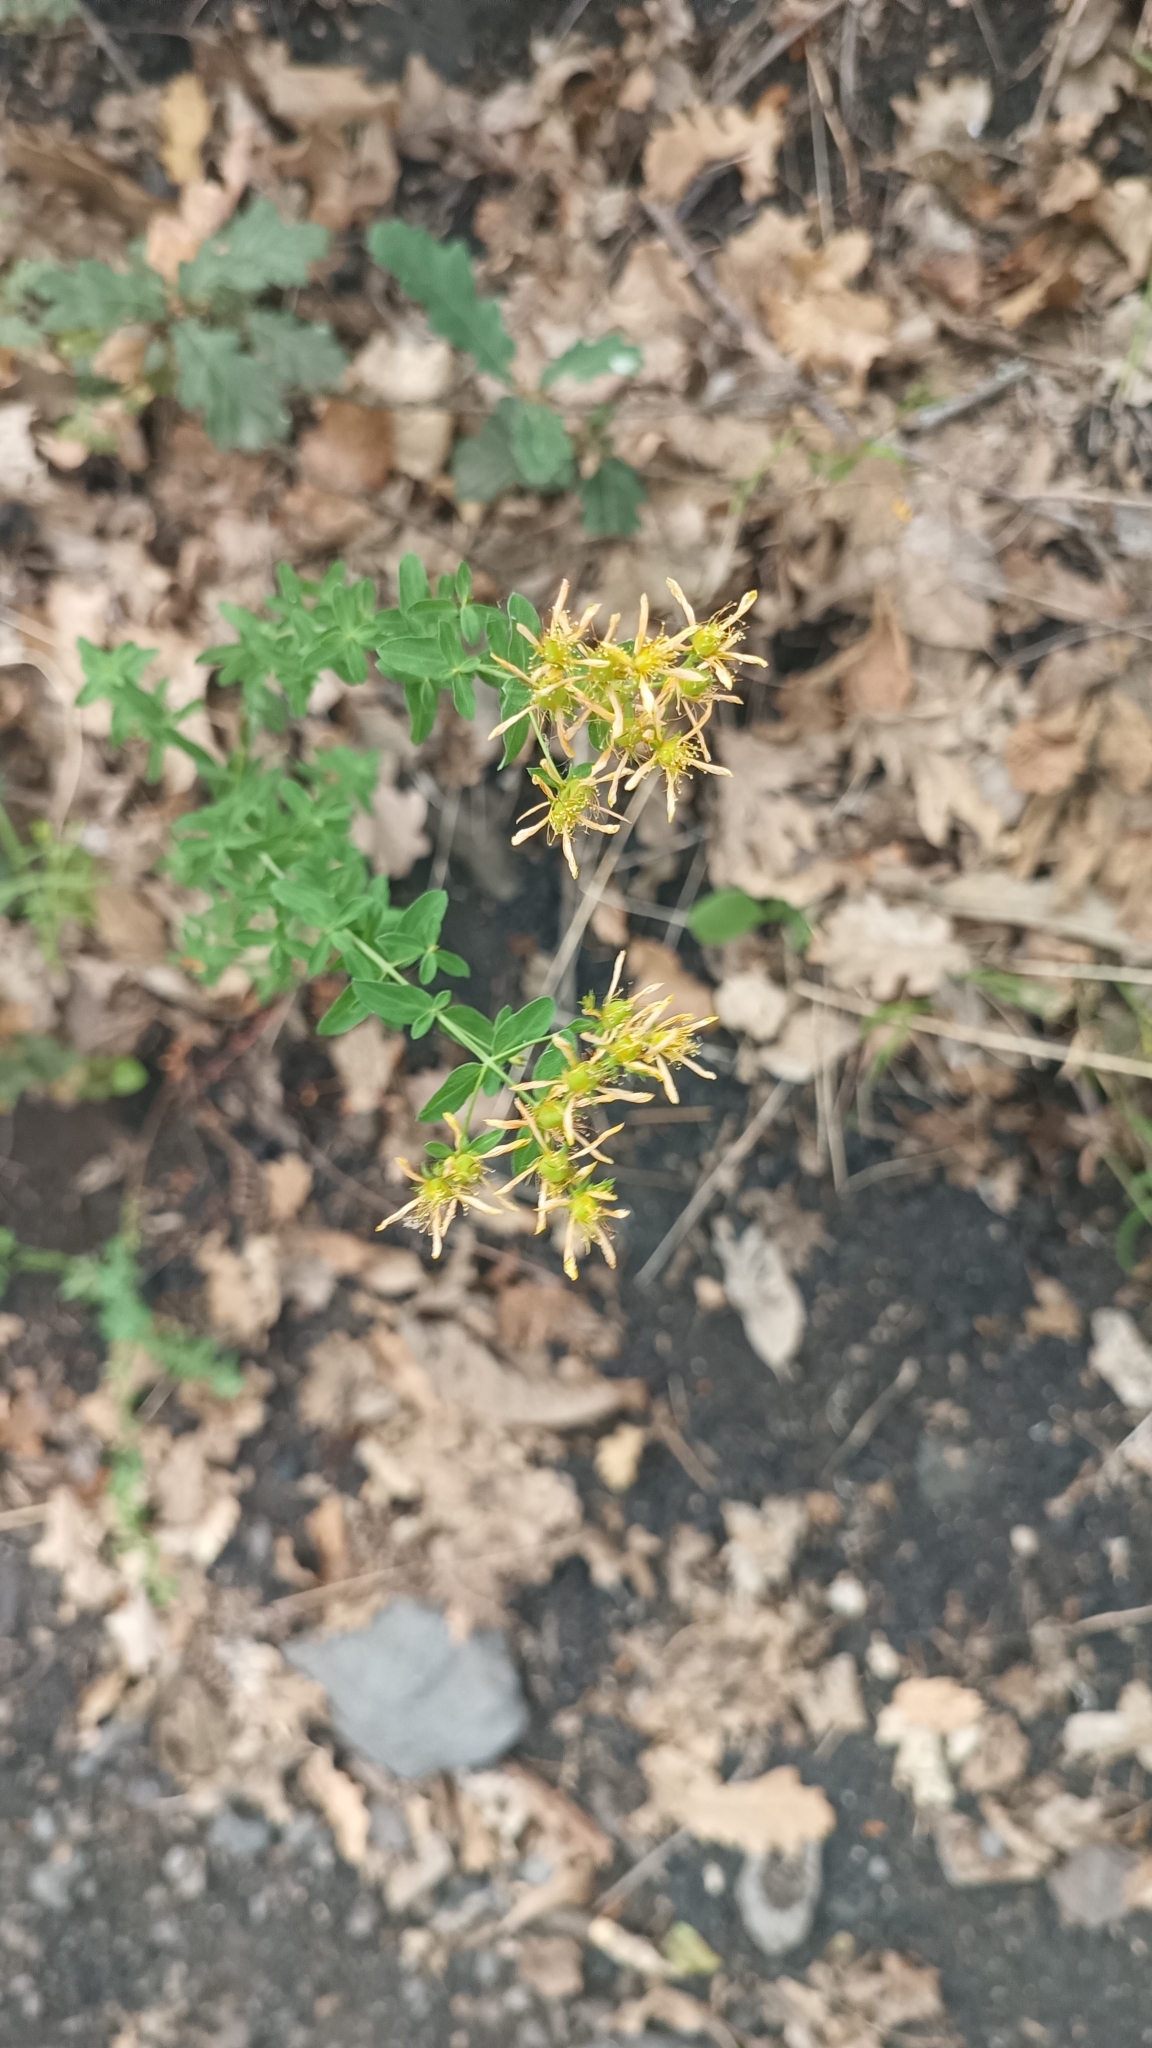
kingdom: Plantae
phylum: Tracheophyta
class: Magnoliopsida
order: Malpighiales
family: Hypericaceae
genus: Hypericum
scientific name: Hypericum perforatum
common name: Common st. johnswort
